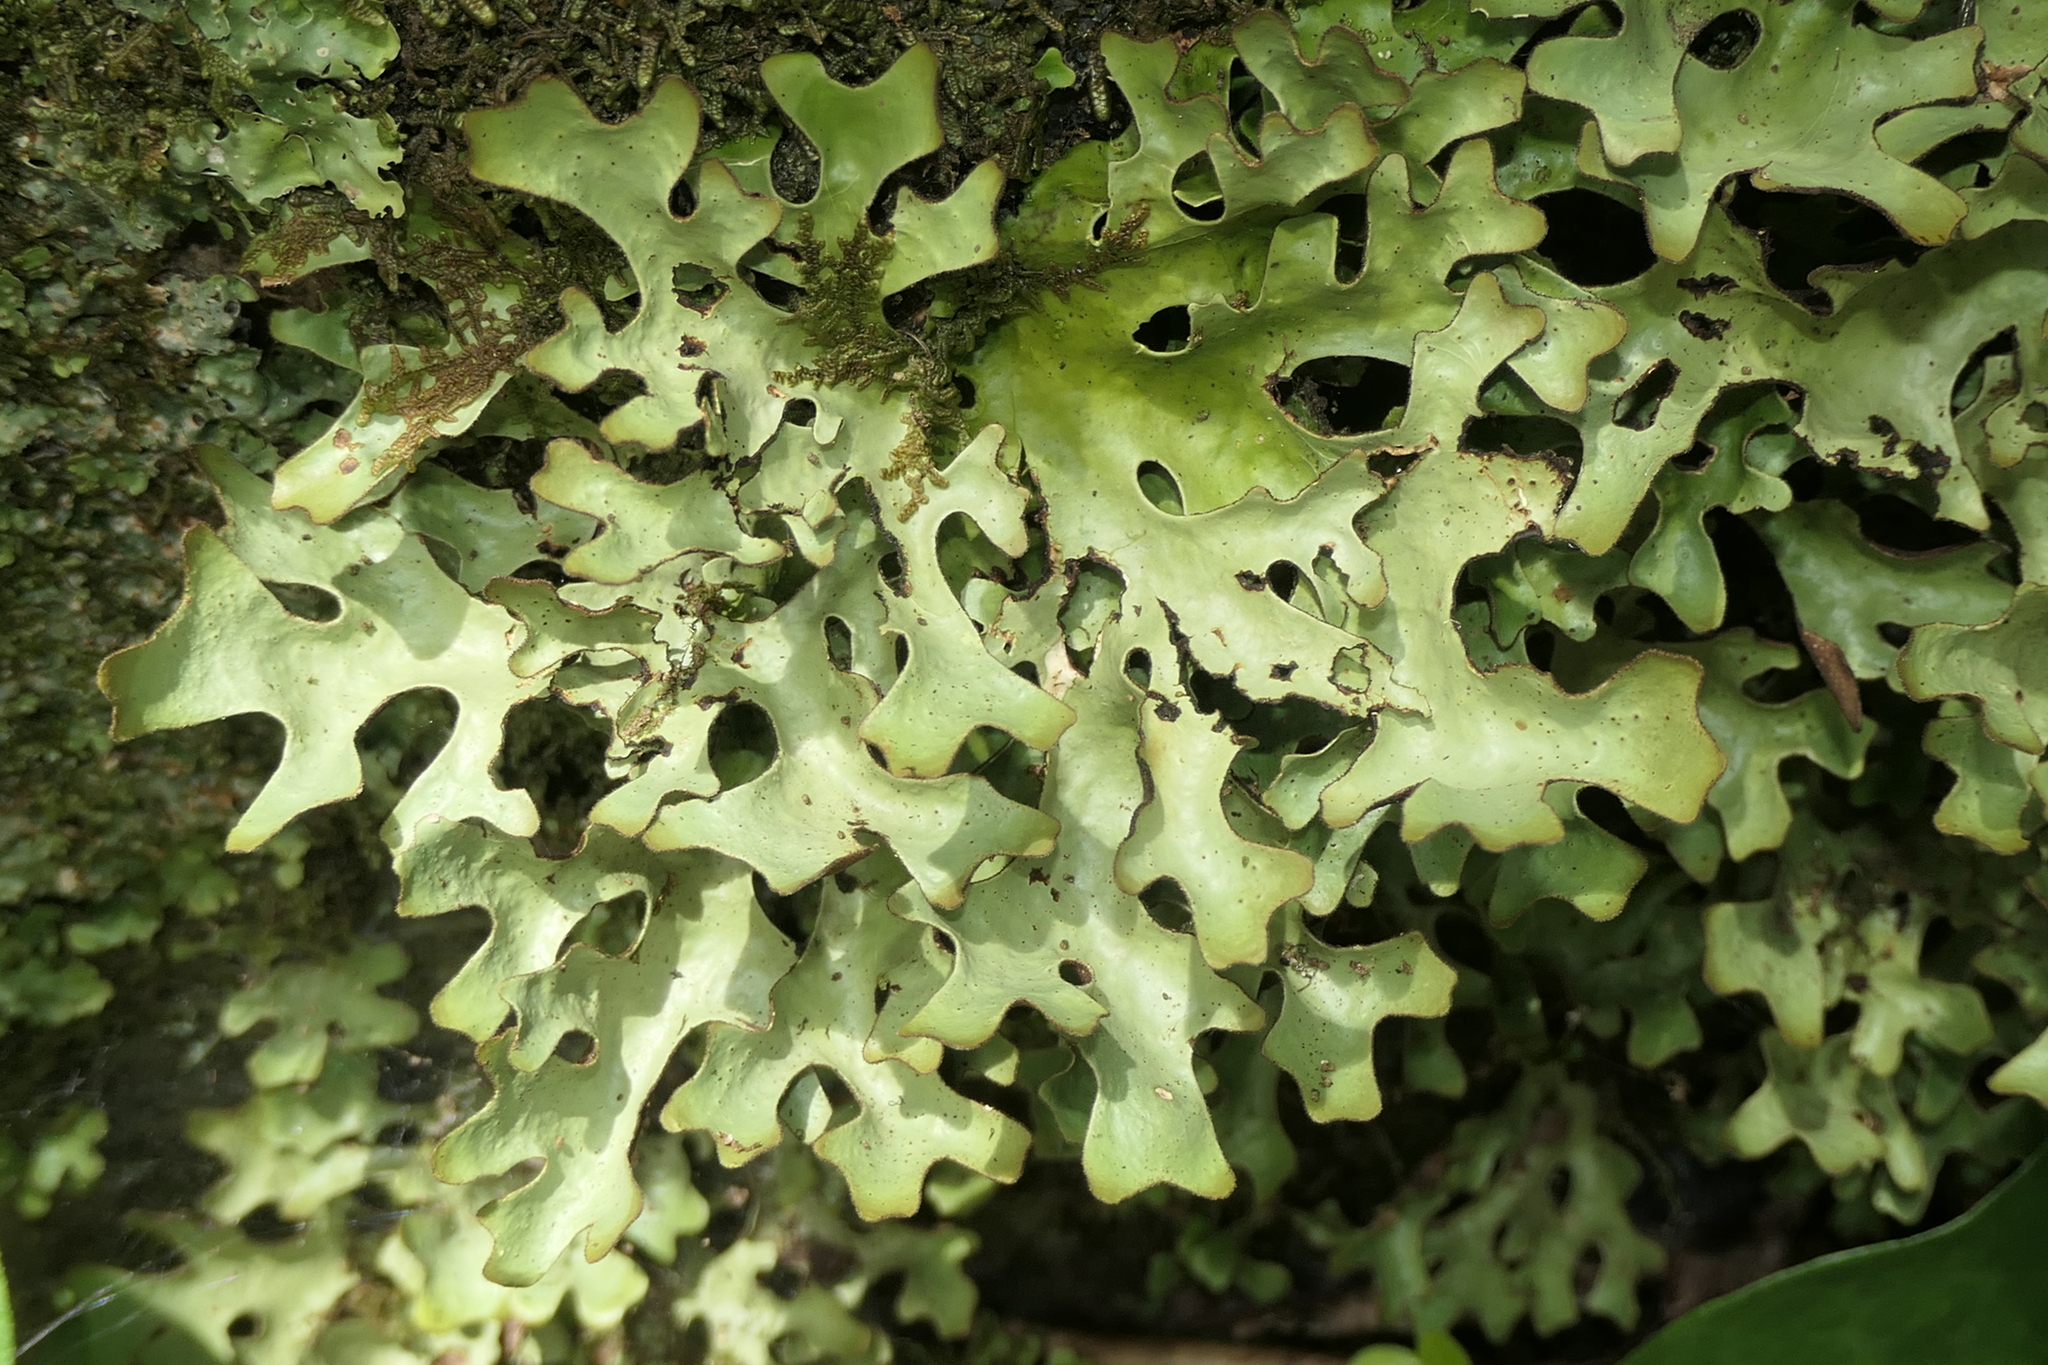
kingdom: Fungi
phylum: Ascomycota
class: Lecanoromycetes
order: Peltigerales
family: Lobariaceae
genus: Sticta
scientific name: Sticta canariensis
